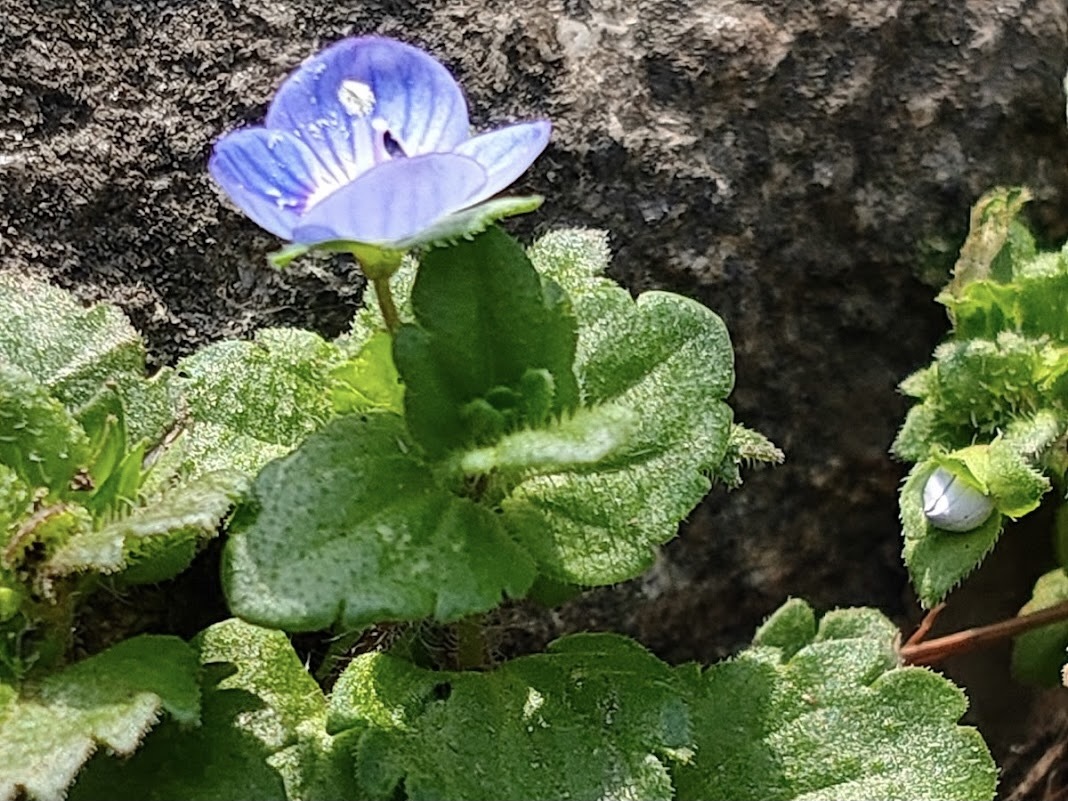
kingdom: Plantae
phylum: Tracheophyta
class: Magnoliopsida
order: Lamiales
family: Plantaginaceae
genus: Veronica
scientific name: Veronica persica
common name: Common field-speedwell
